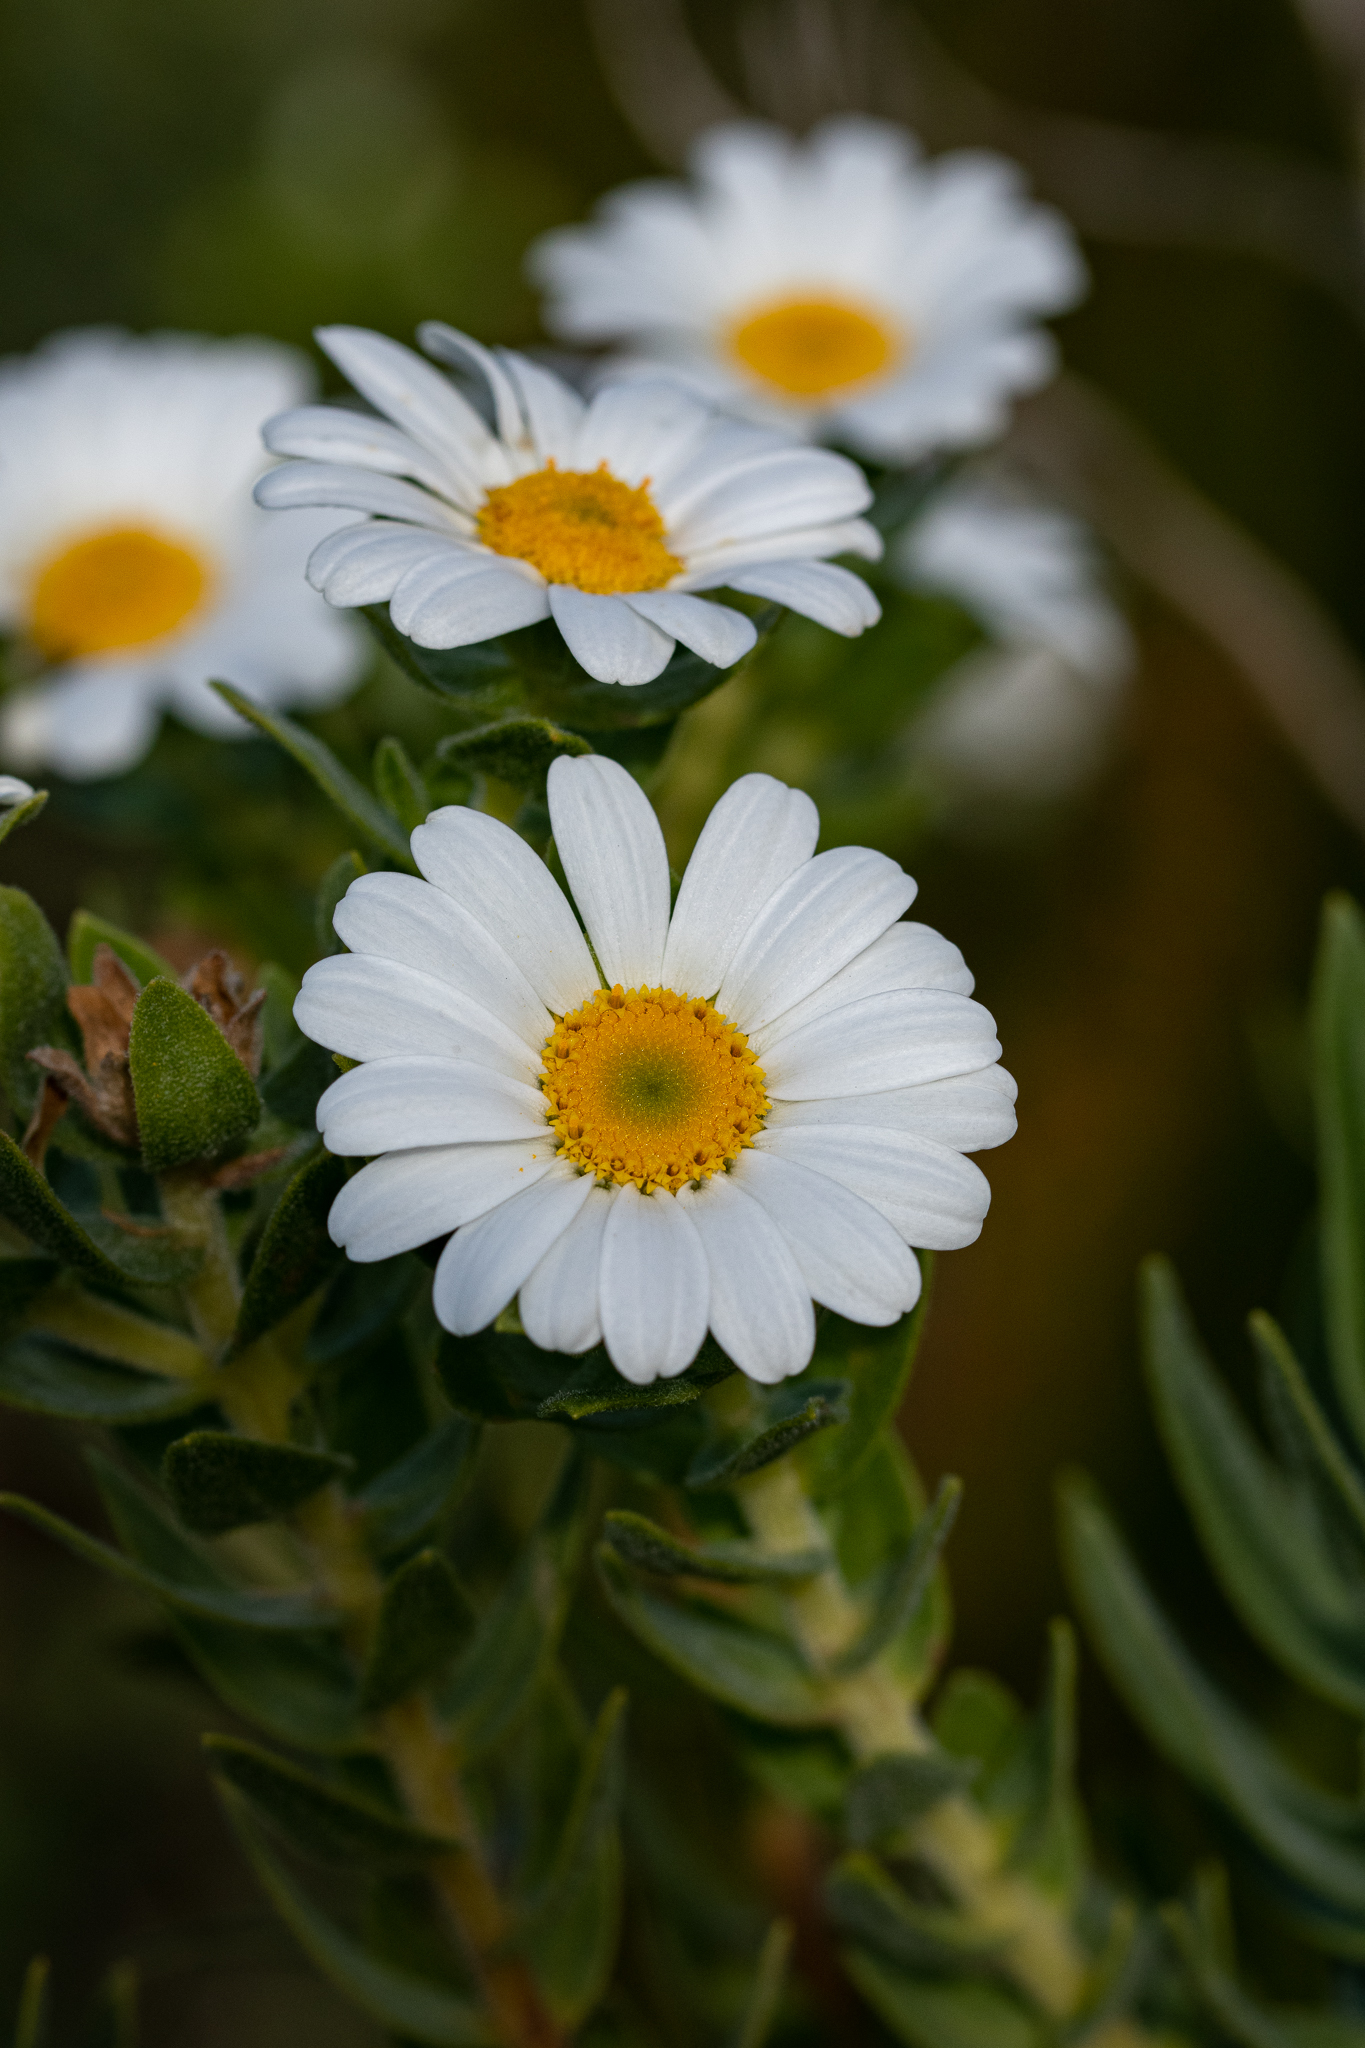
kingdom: Plantae
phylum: Tracheophyta
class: Magnoliopsida
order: Asterales
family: Asteraceae
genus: Osmitopsis
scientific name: Osmitopsis asteriscoides
